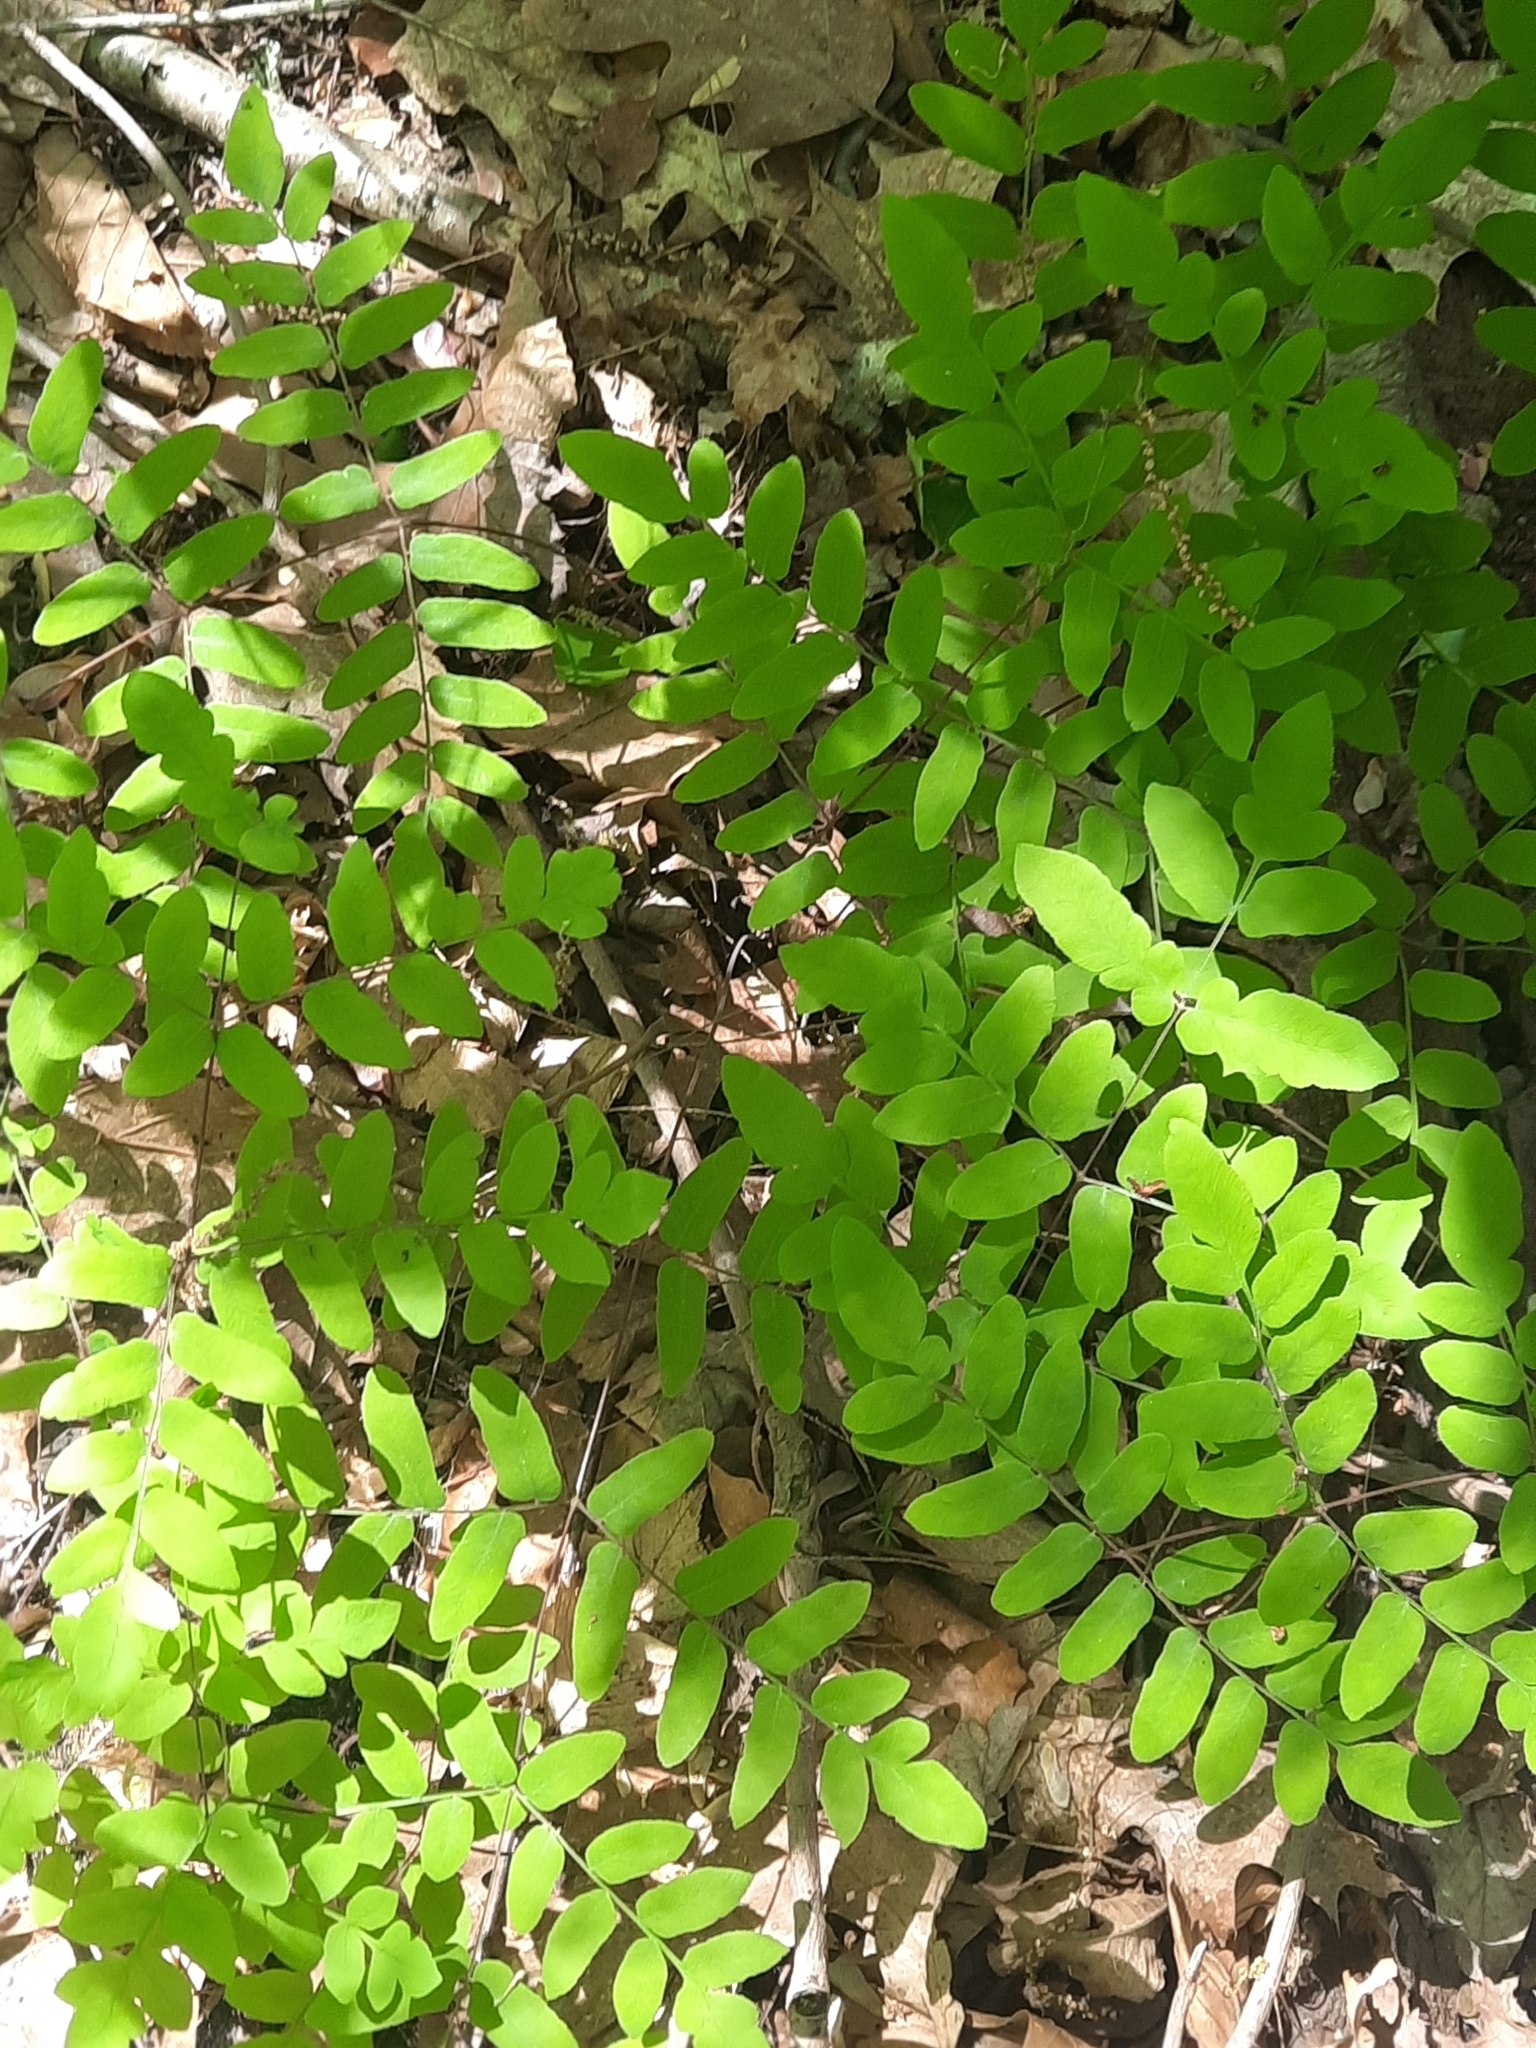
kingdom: Plantae
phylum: Tracheophyta
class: Polypodiopsida
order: Osmundales
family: Osmundaceae
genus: Osmunda
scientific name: Osmunda spectabilis
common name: American royal fern
